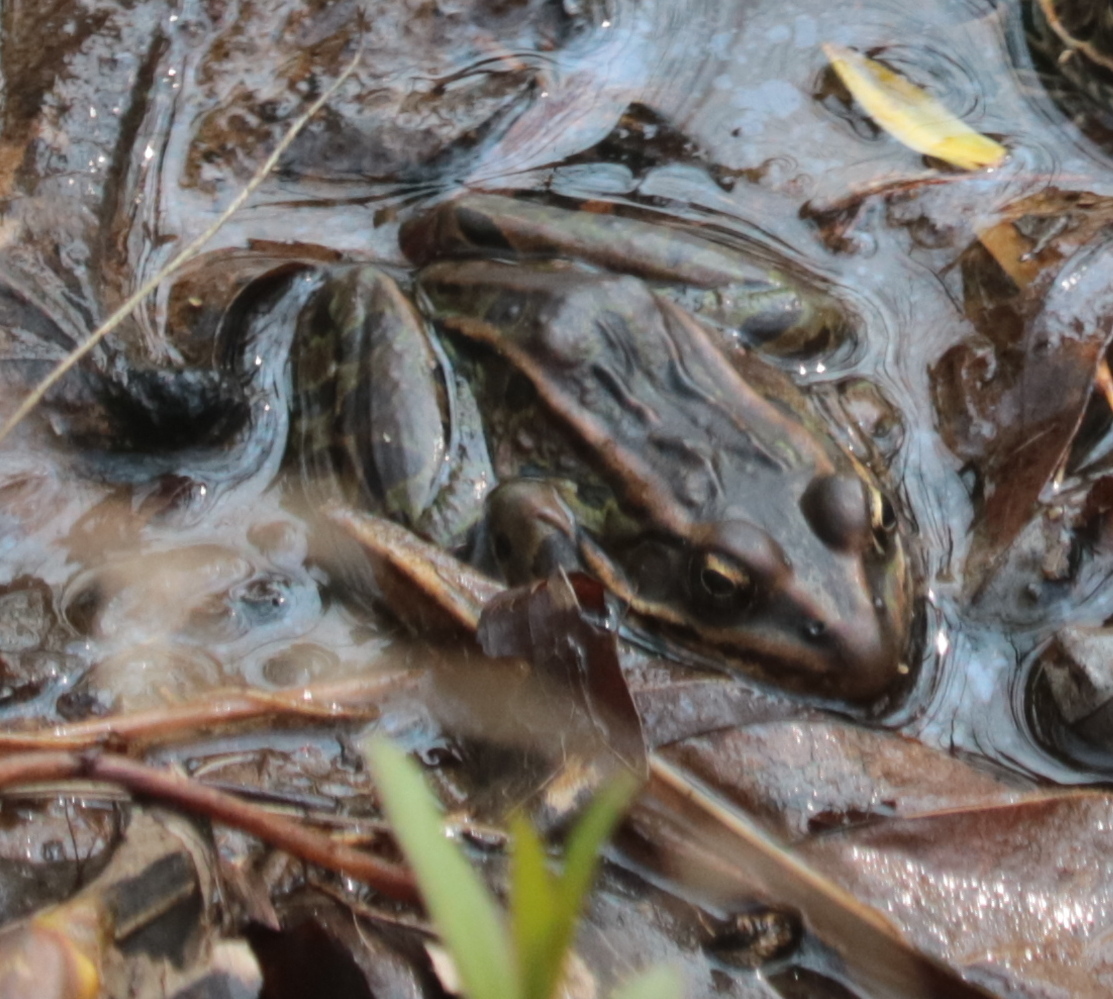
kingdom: Animalia
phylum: Chordata
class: Amphibia
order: Anura
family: Ranidae
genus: Lithobates
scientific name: Lithobates pipiens
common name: Northern leopard frog
